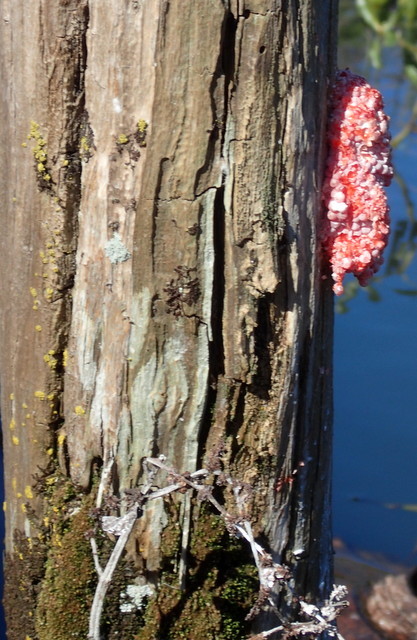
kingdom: Animalia
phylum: Mollusca
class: Gastropoda
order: Architaenioglossa
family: Ampullariidae
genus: Pomacea
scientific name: Pomacea maculata
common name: Giant applesnail
